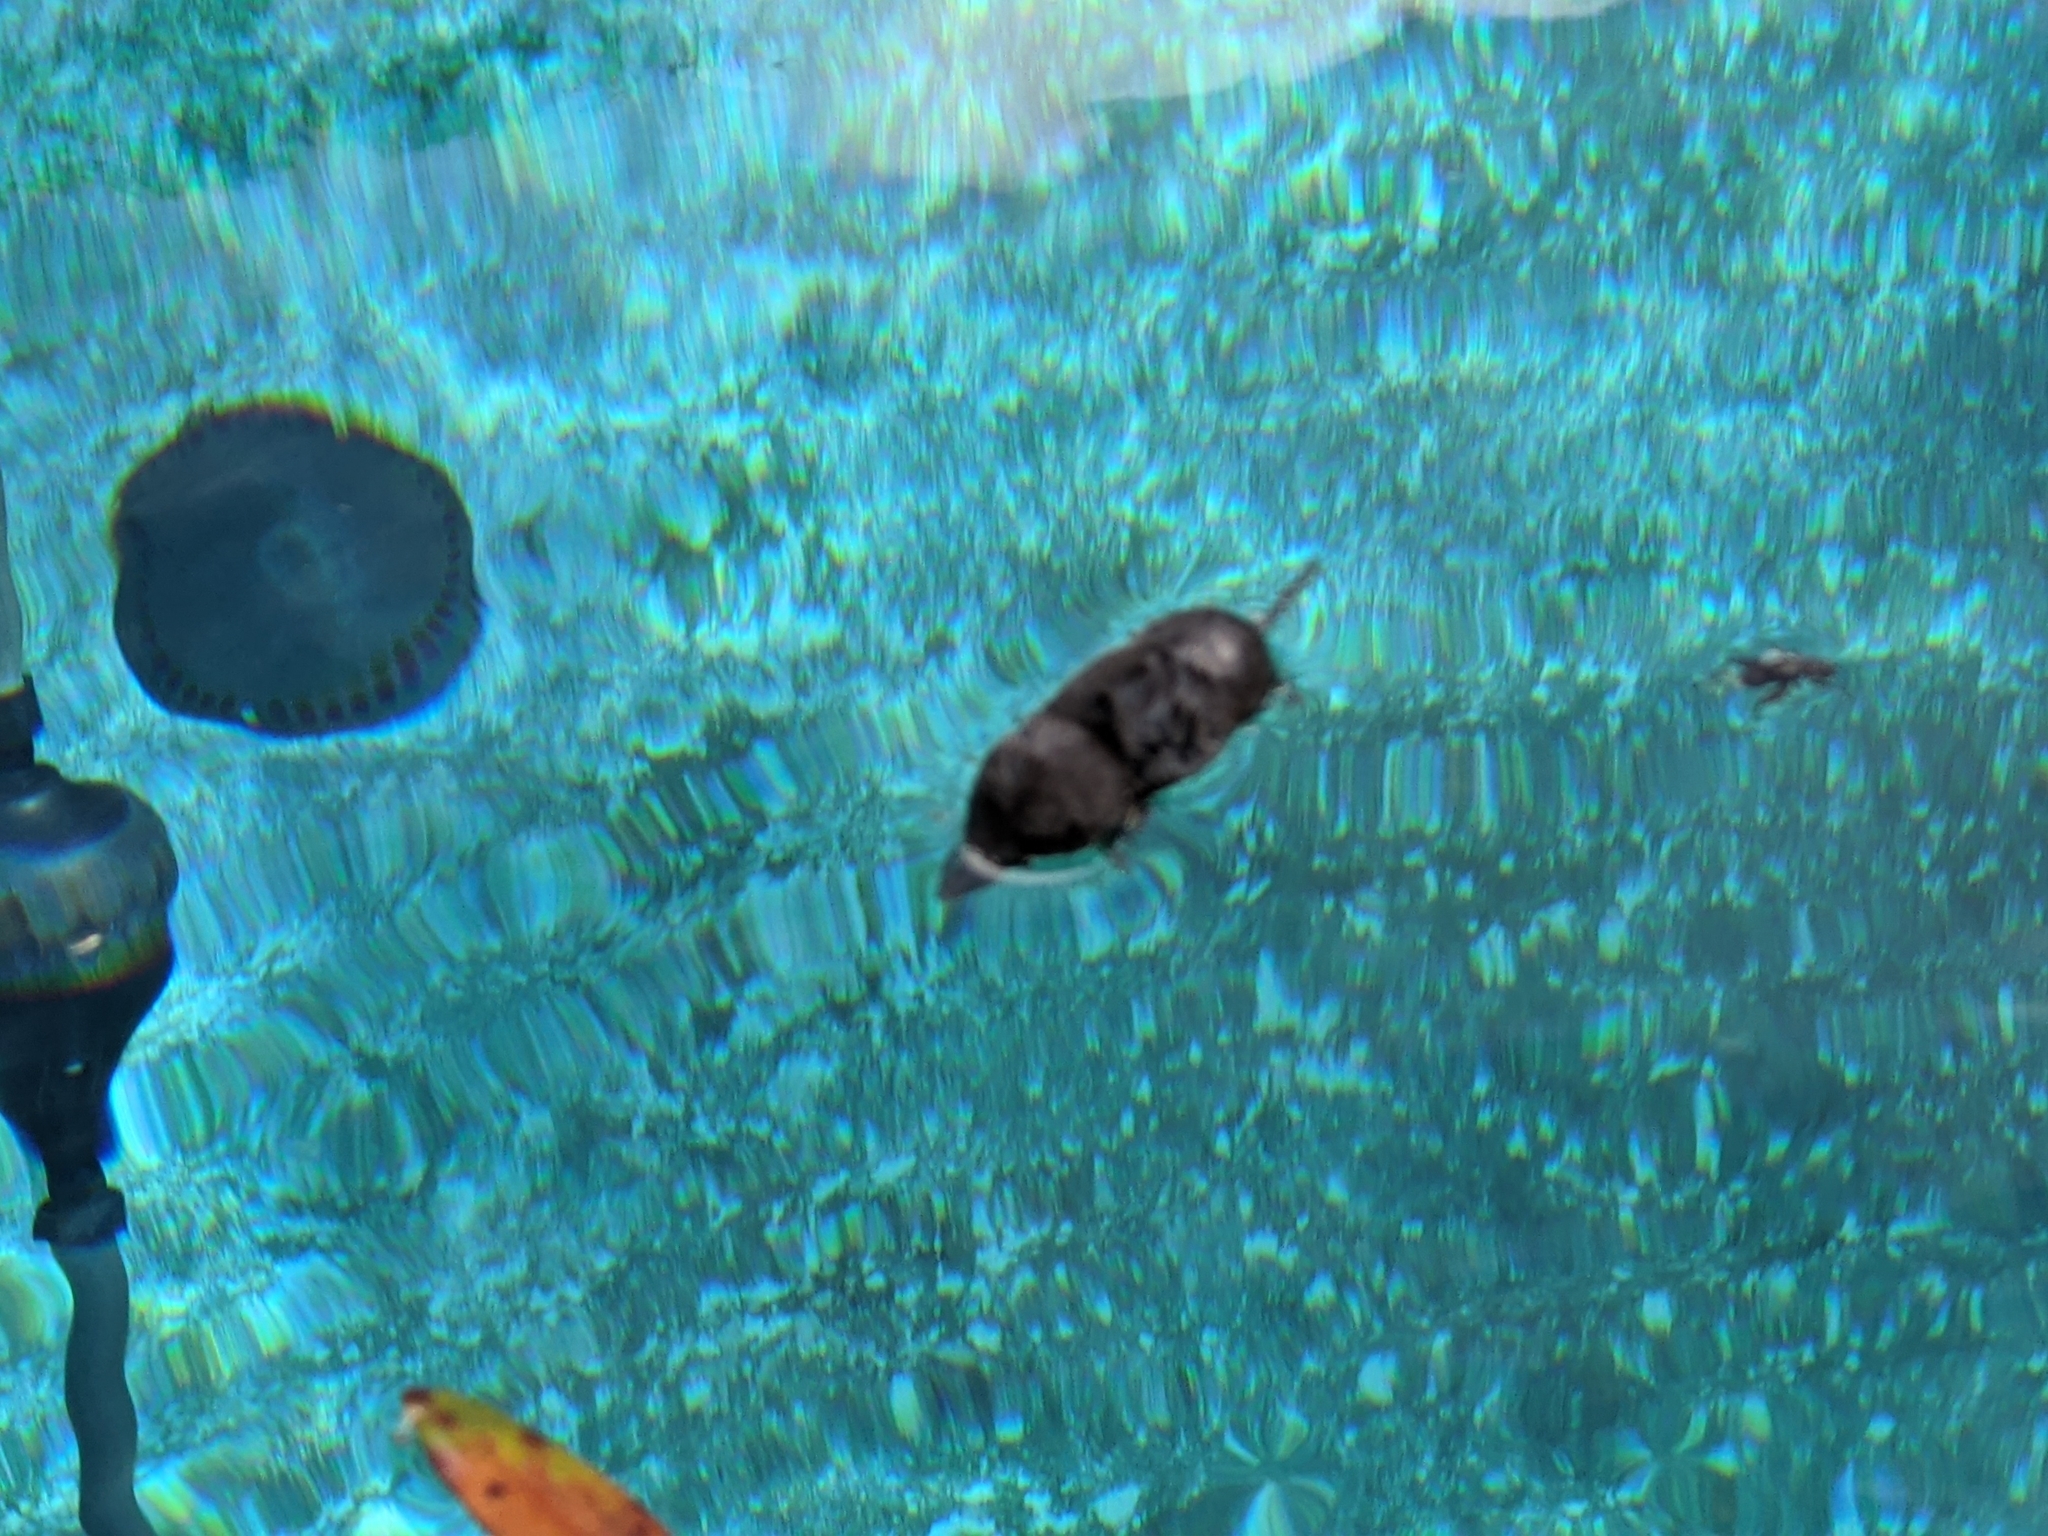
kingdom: Animalia
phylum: Chordata
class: Mammalia
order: Soricomorpha
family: Soricidae
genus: Blarina
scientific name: Blarina carolinensis
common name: Southern short-tailed shrew
